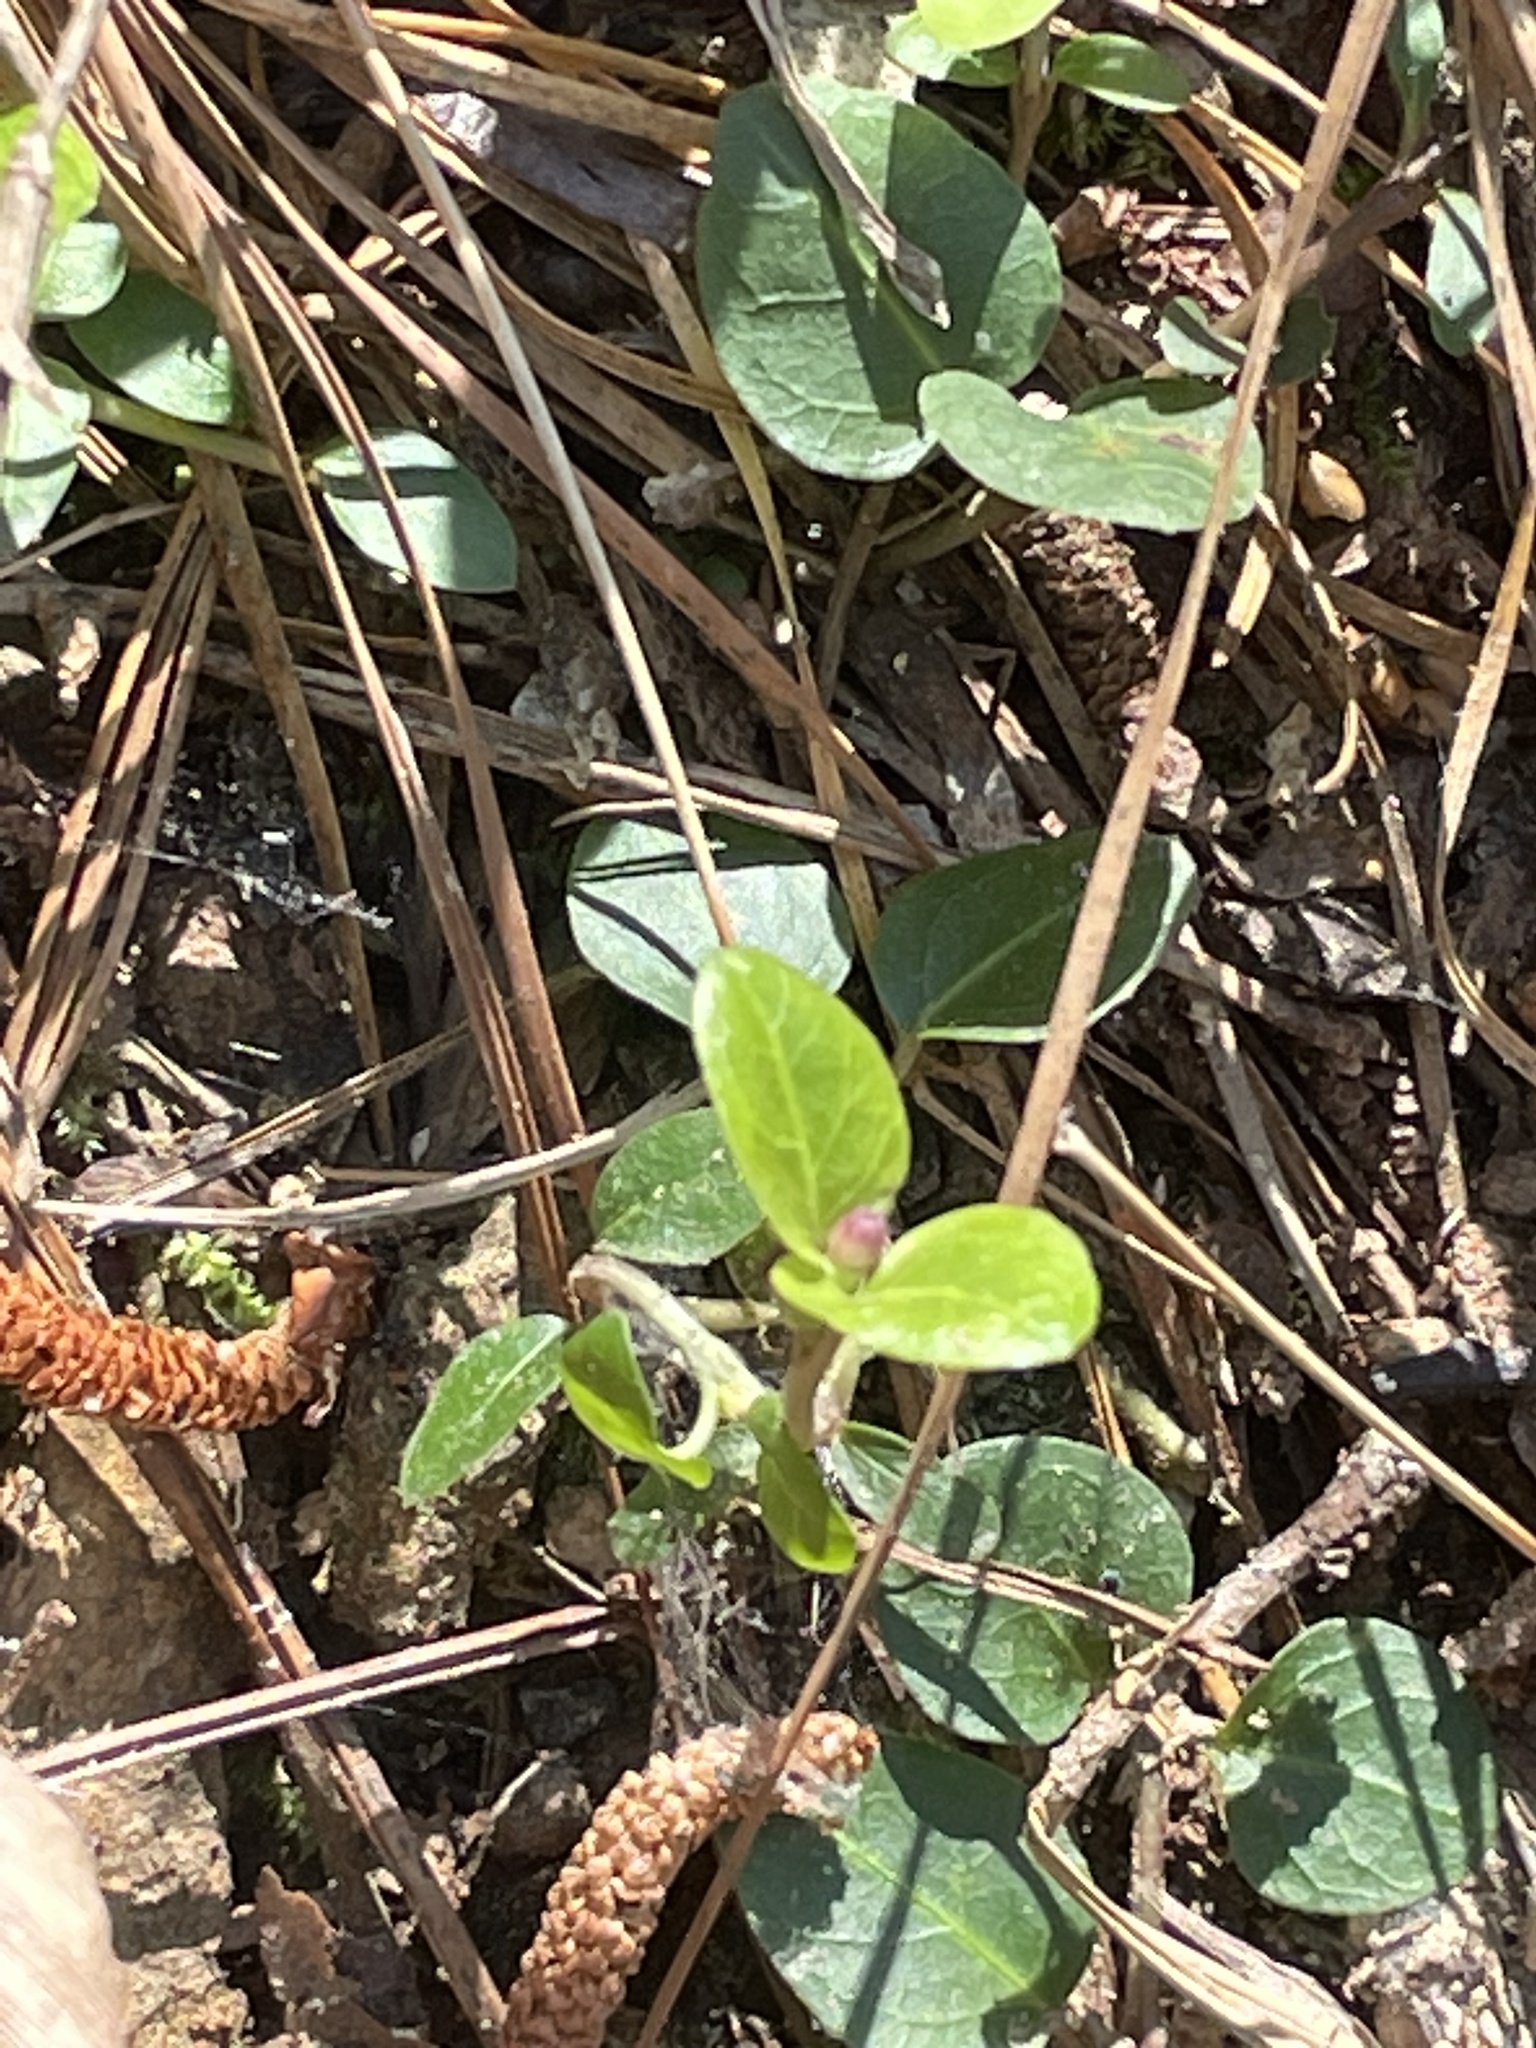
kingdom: Plantae
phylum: Tracheophyta
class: Magnoliopsida
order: Gentianales
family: Rubiaceae
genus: Mitchella
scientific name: Mitchella repens
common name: Partridge-berry
